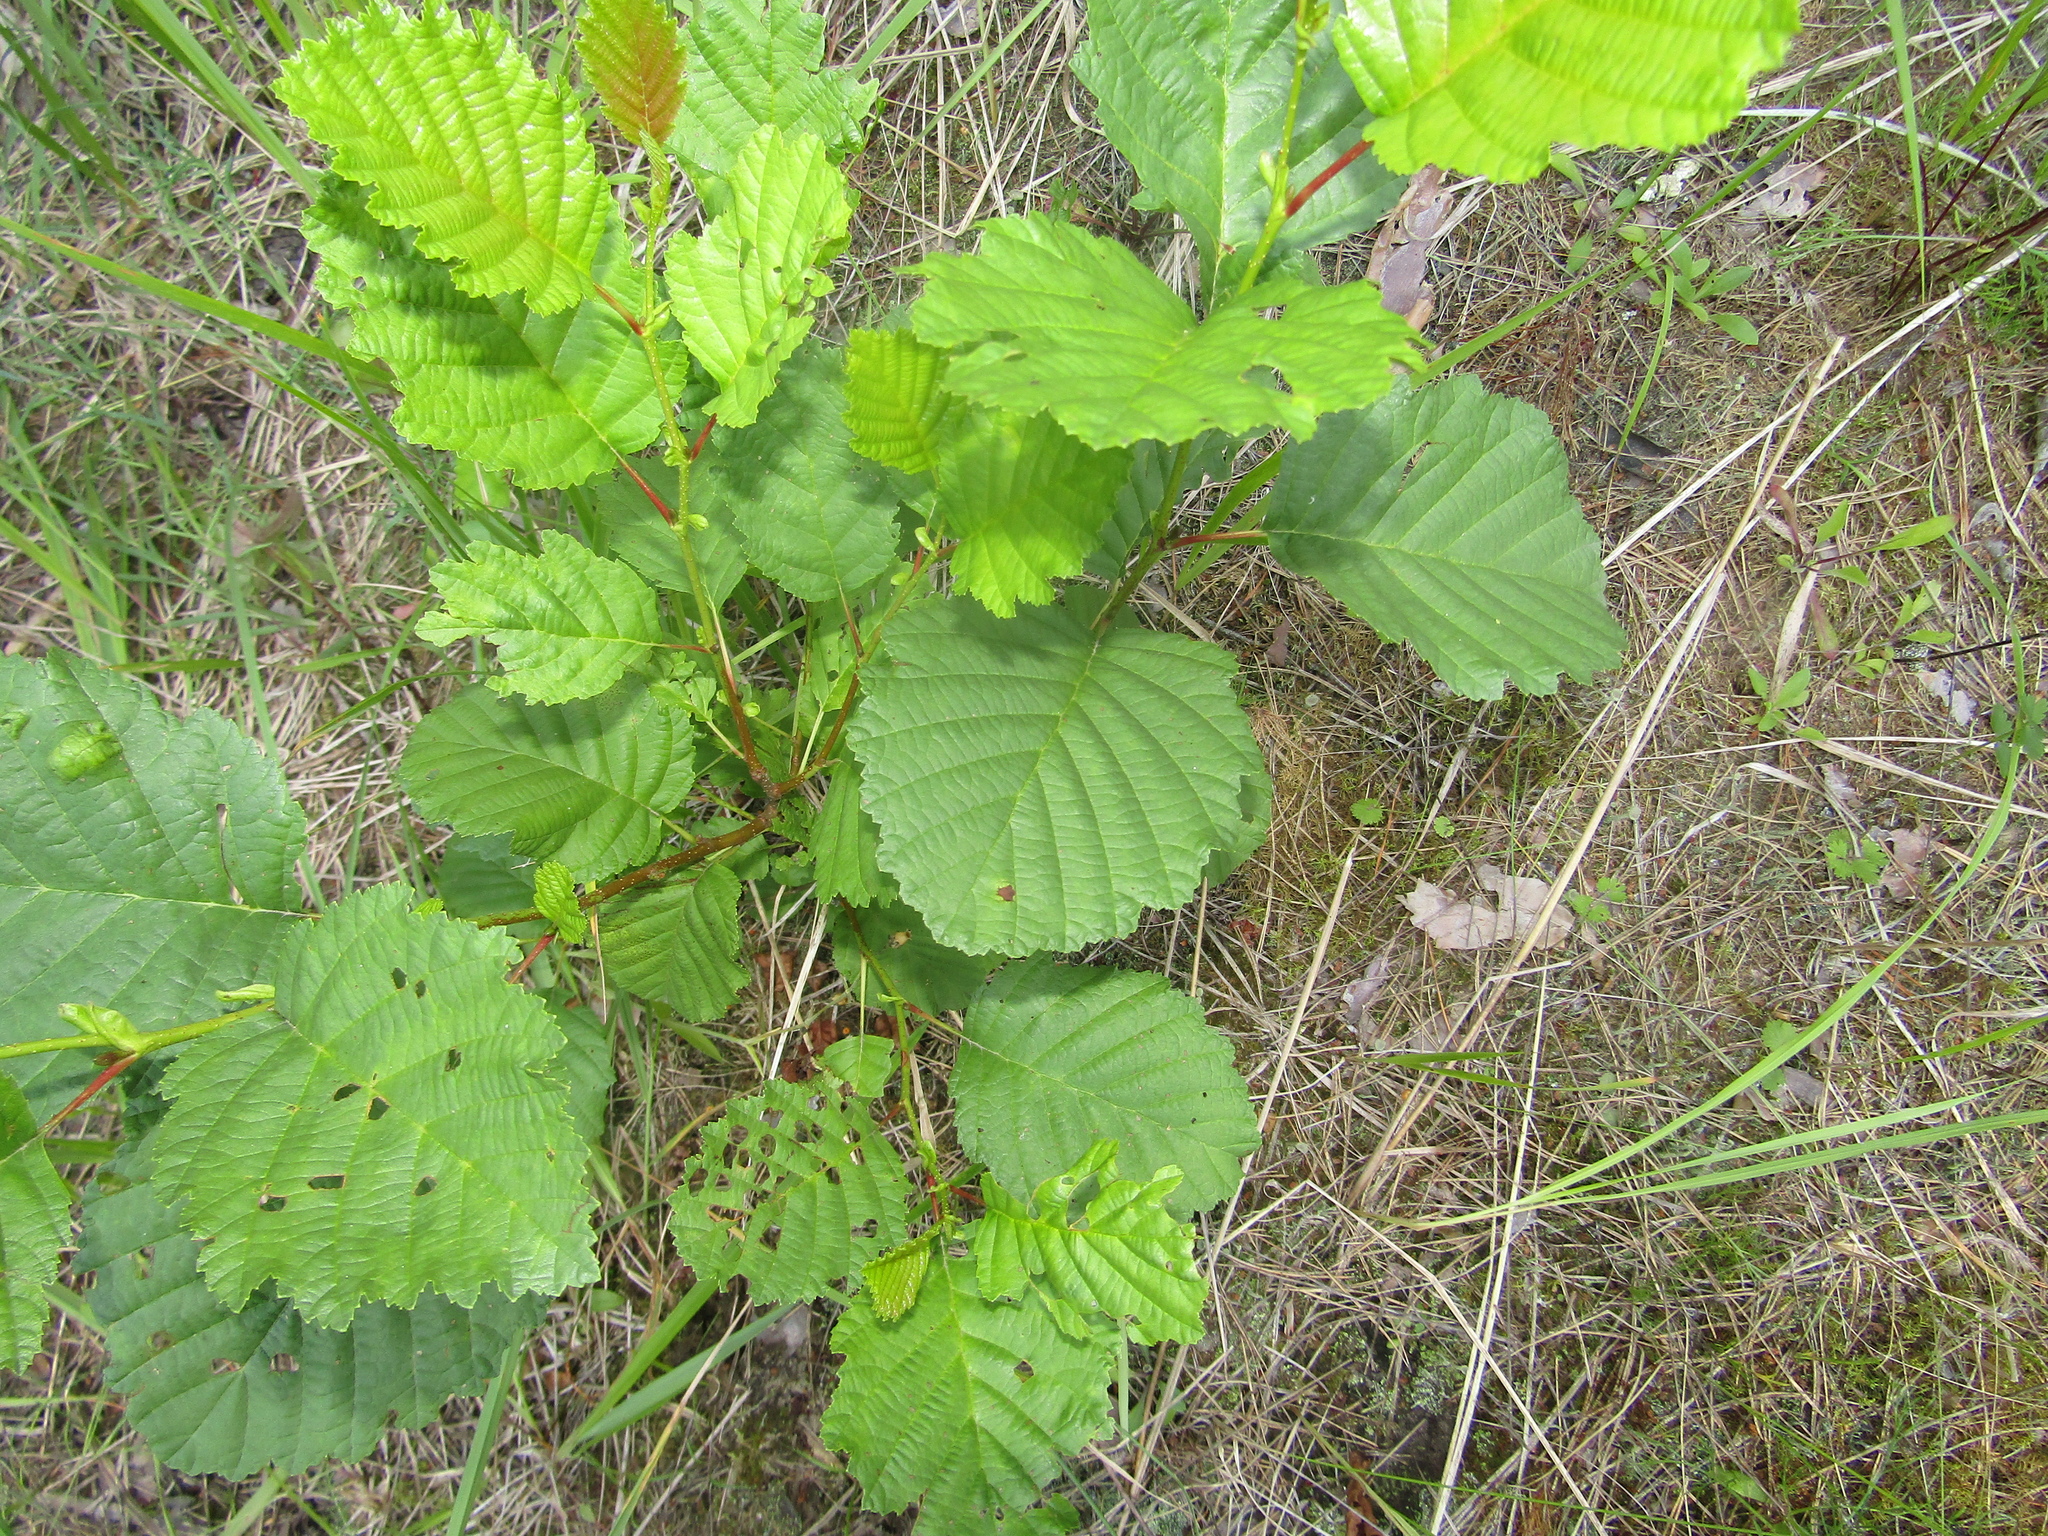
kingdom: Plantae
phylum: Tracheophyta
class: Magnoliopsida
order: Fagales
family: Betulaceae
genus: Alnus
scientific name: Alnus glutinosa
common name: Black alder
